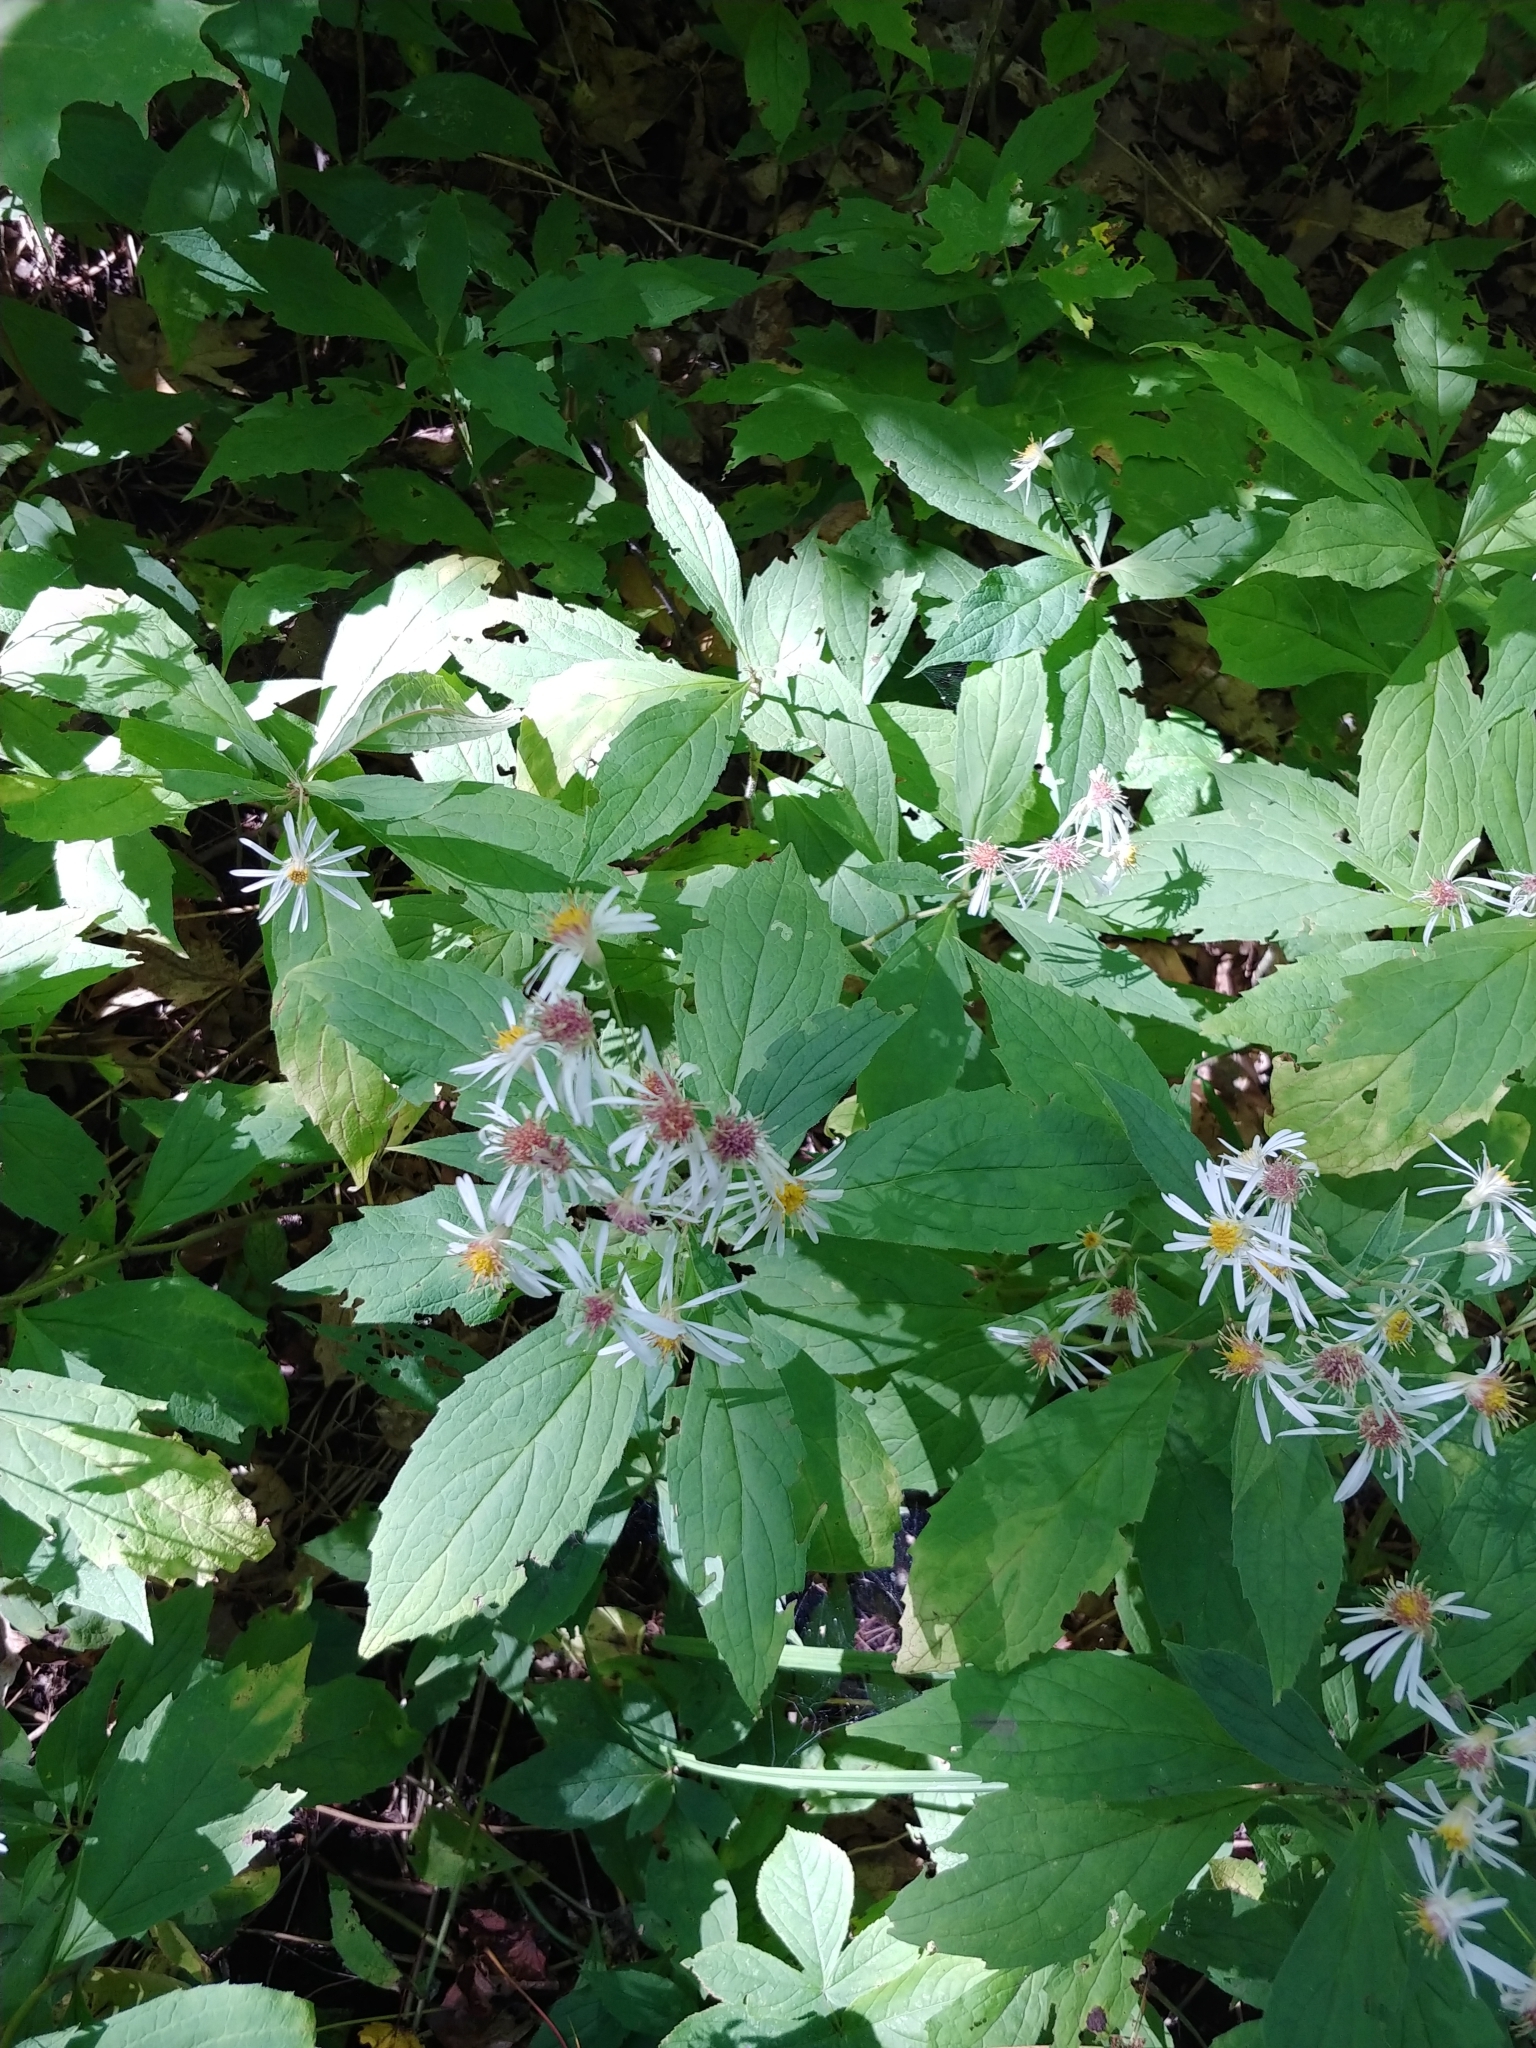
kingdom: Plantae
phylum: Tracheophyta
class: Magnoliopsida
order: Asterales
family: Asteraceae
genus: Oclemena
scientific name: Oclemena acuminata
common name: Mountain aster
